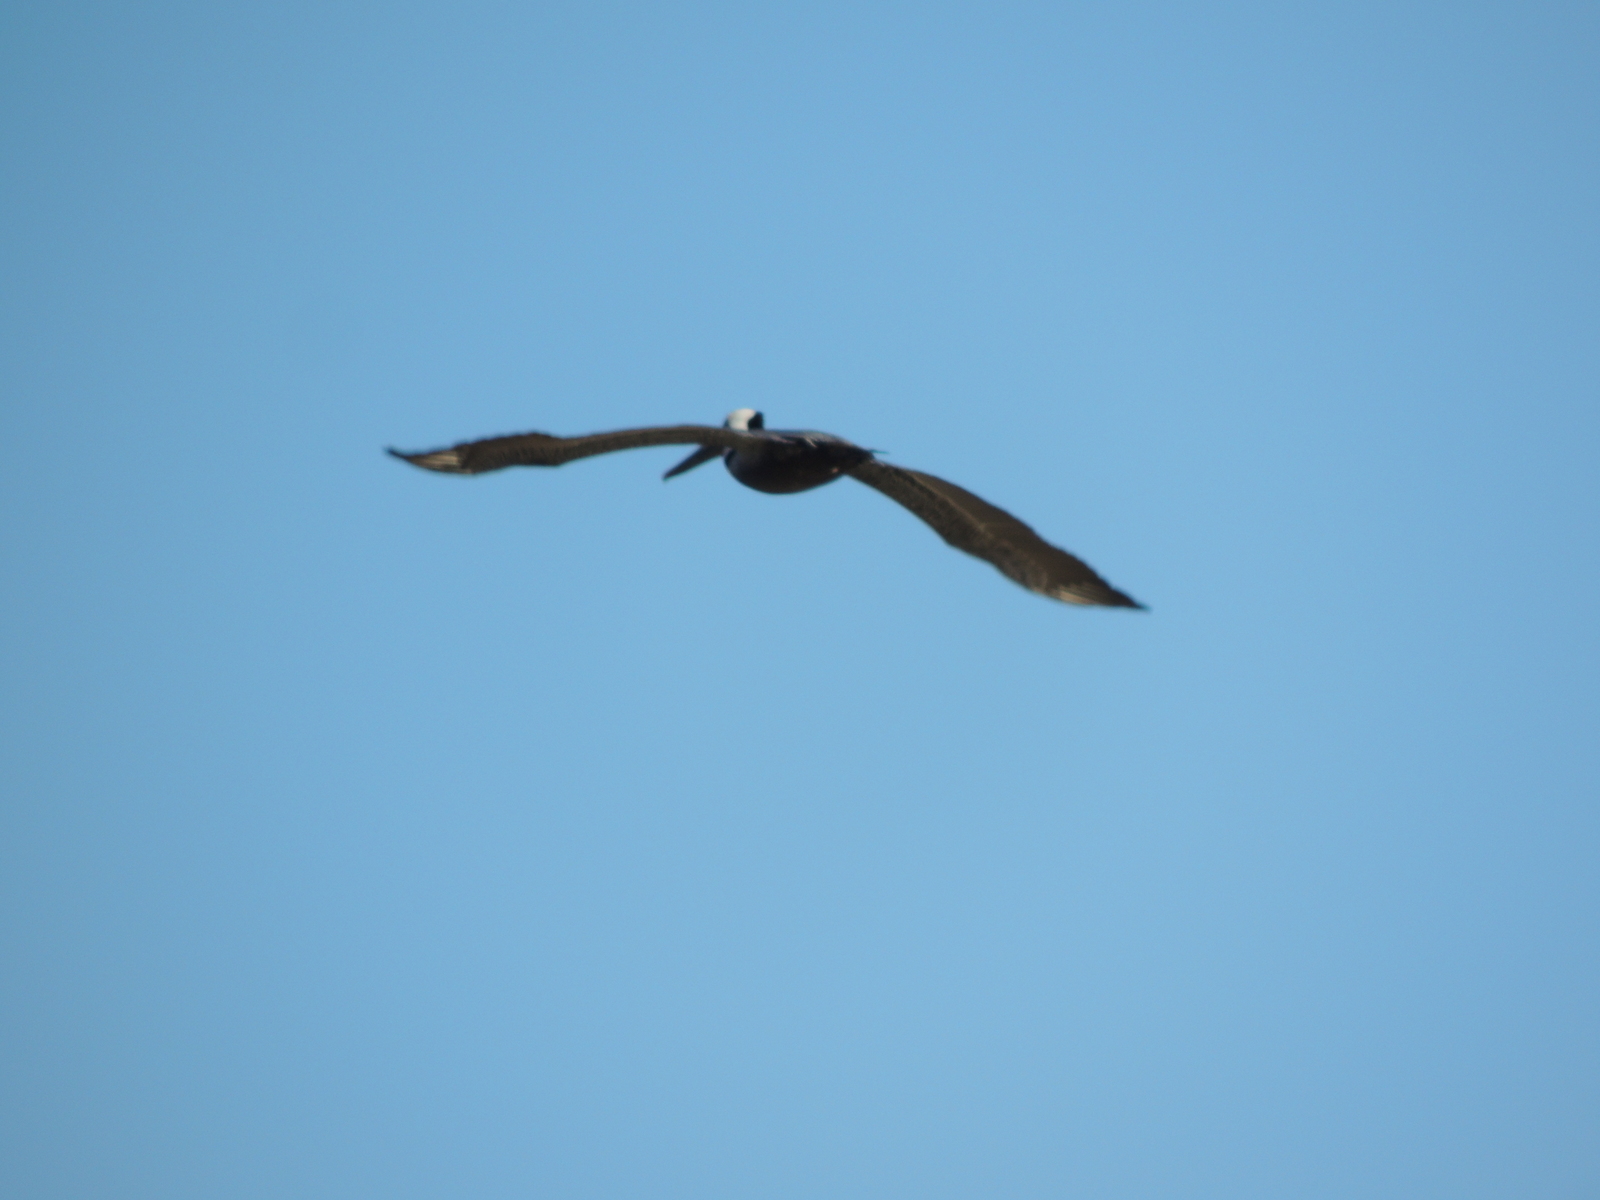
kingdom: Animalia
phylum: Chordata
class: Aves
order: Pelecaniformes
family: Pelecanidae
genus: Pelecanus
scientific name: Pelecanus occidentalis
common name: Brown pelican
